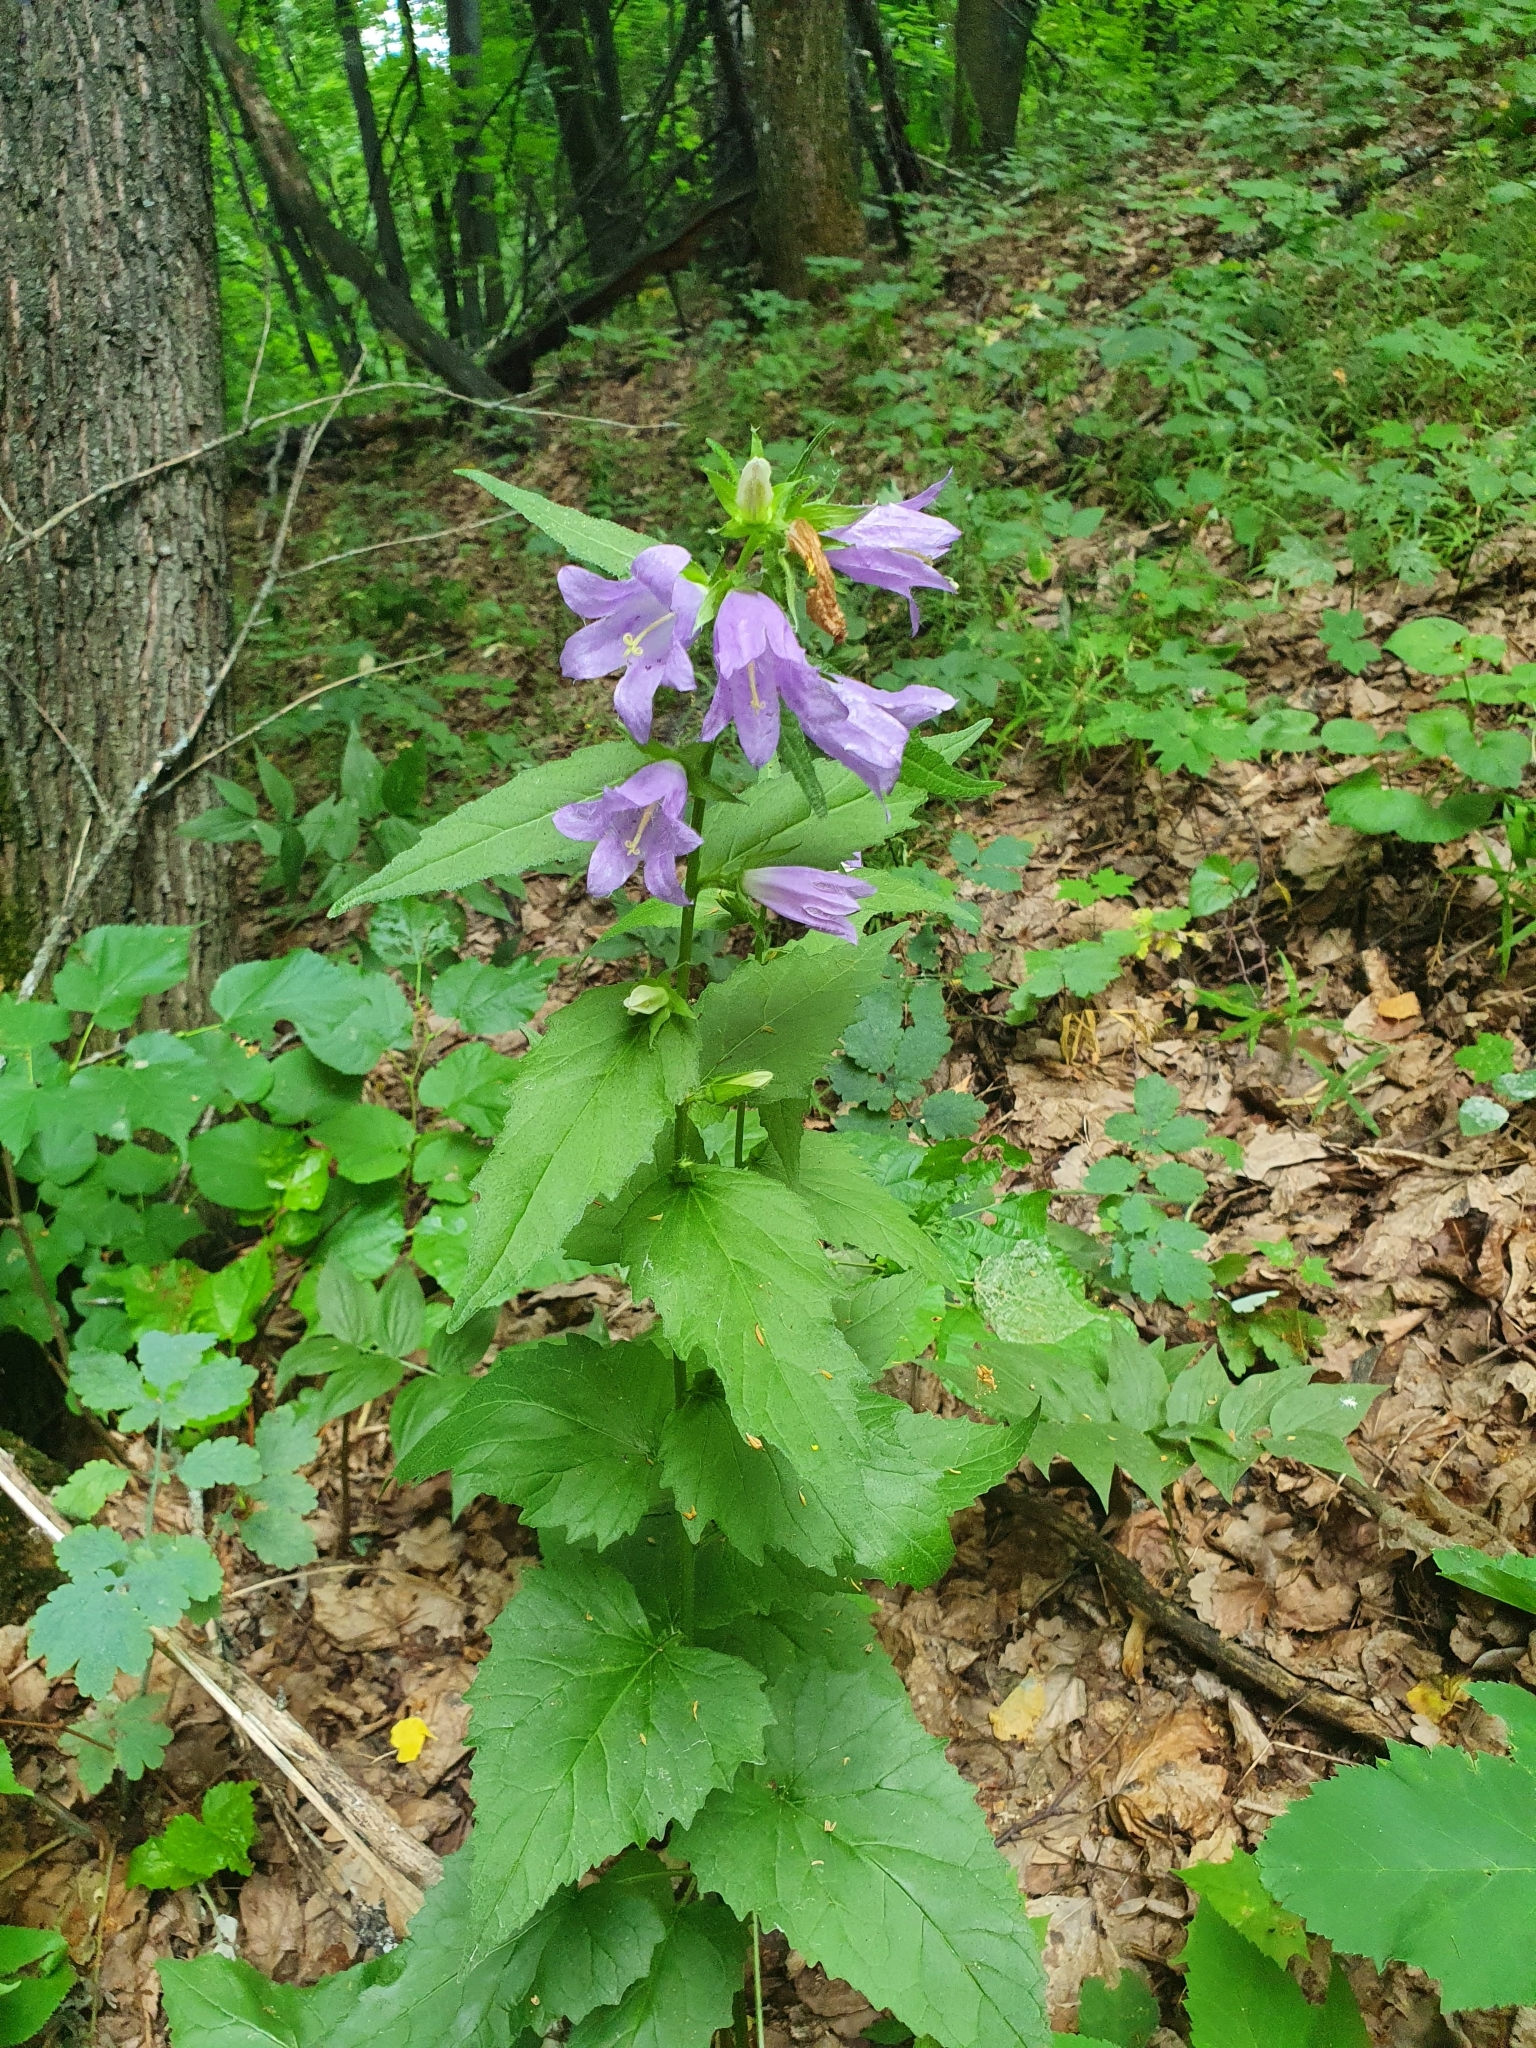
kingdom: Plantae
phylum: Tracheophyta
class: Magnoliopsida
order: Asterales
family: Campanulaceae
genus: Campanula
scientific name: Campanula trachelium
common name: Nettle-leaved bellflower
